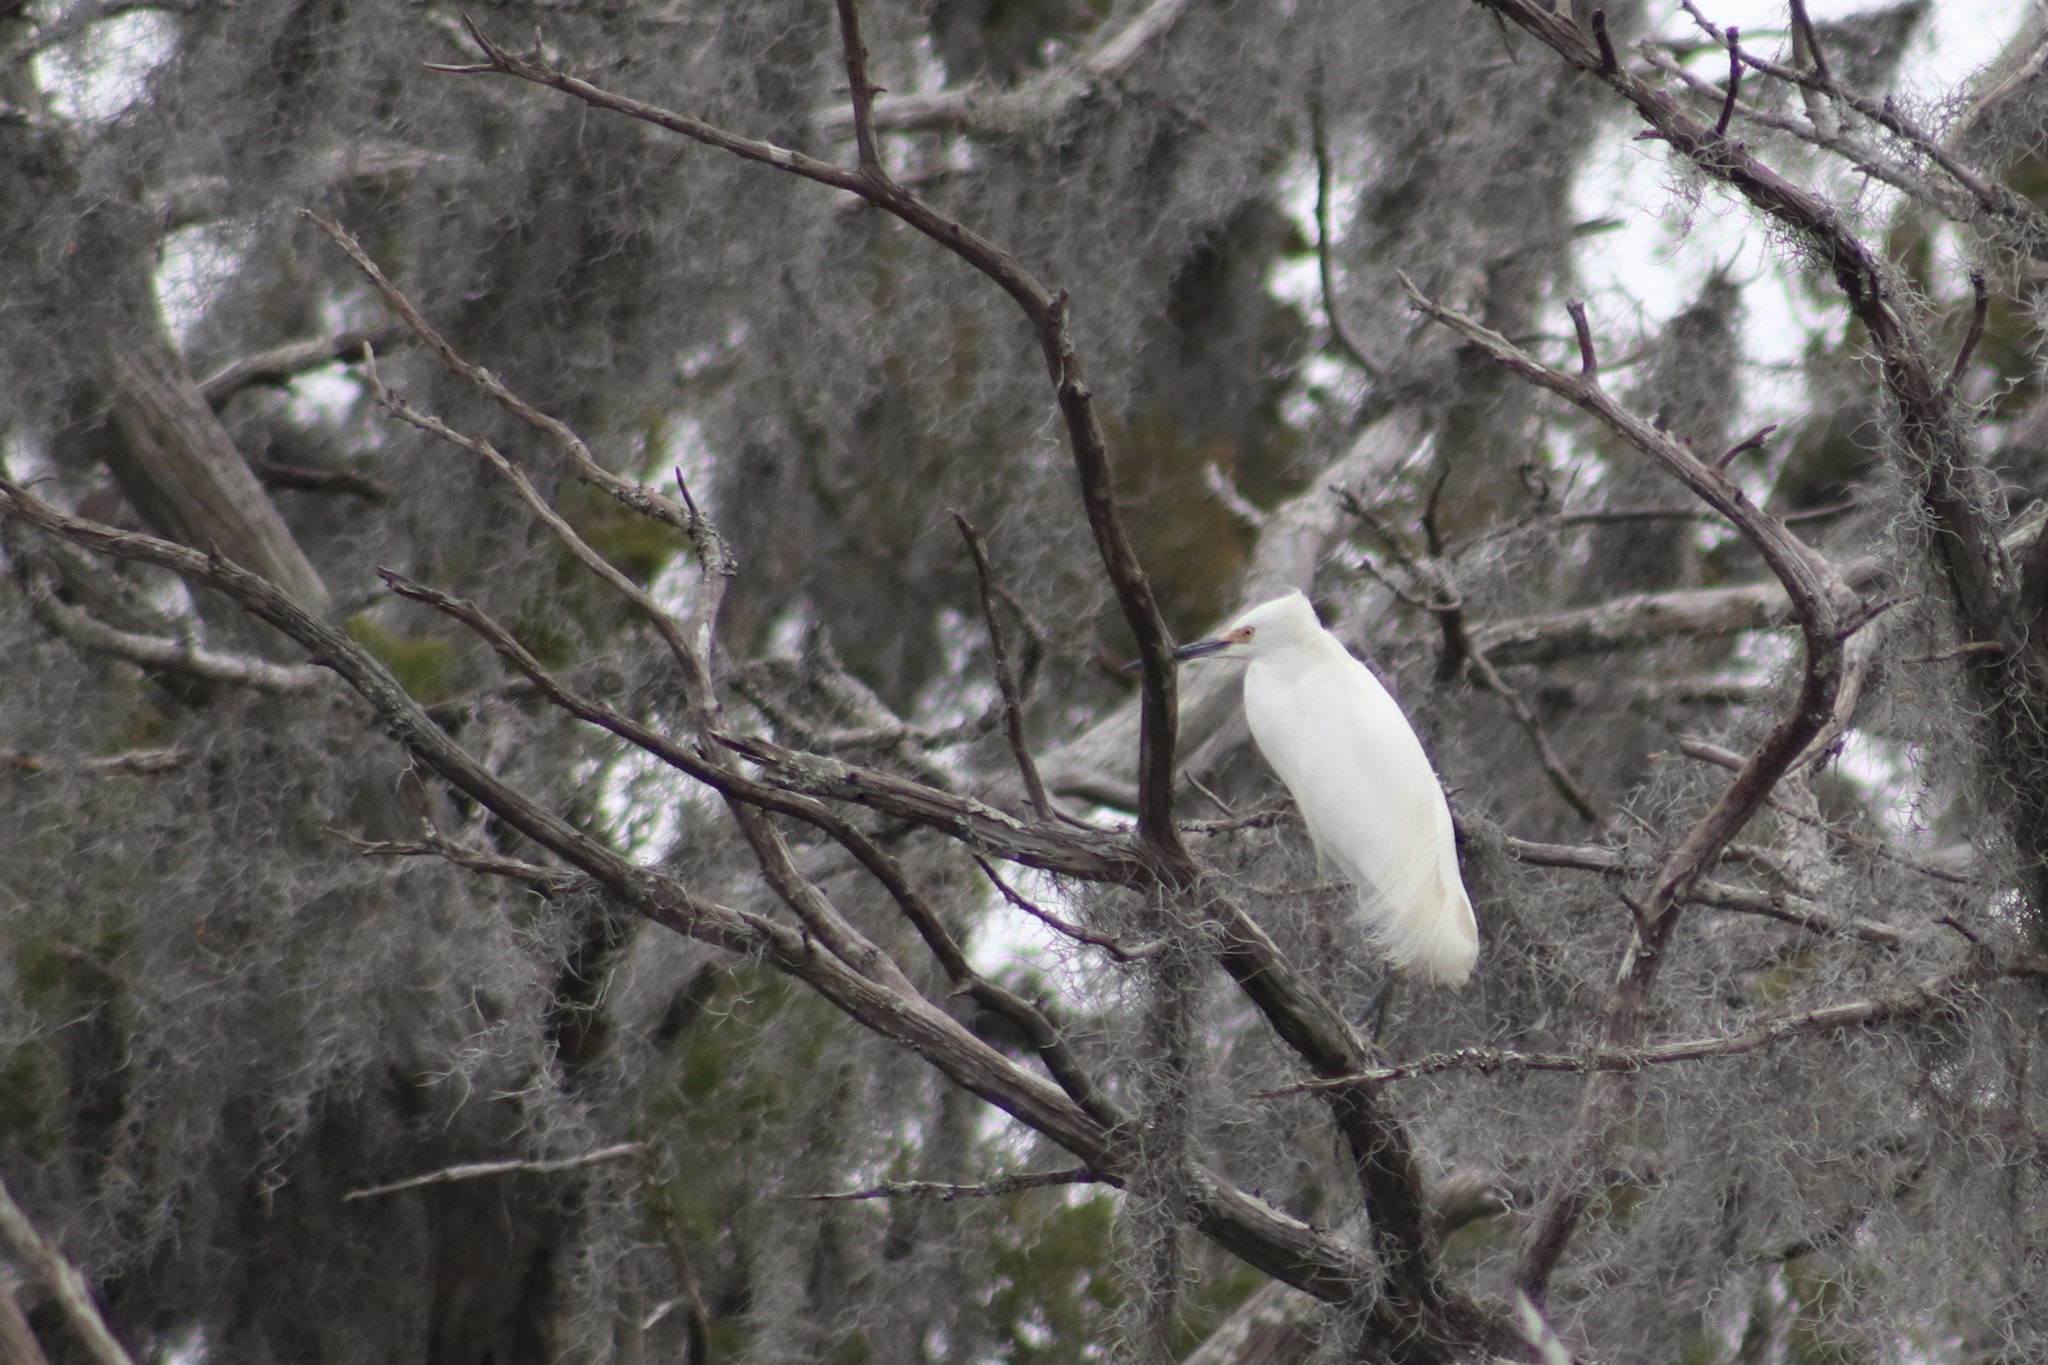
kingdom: Animalia
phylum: Chordata
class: Aves
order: Pelecaniformes
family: Ardeidae
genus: Egretta
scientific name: Egretta thula
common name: Snowy egret
